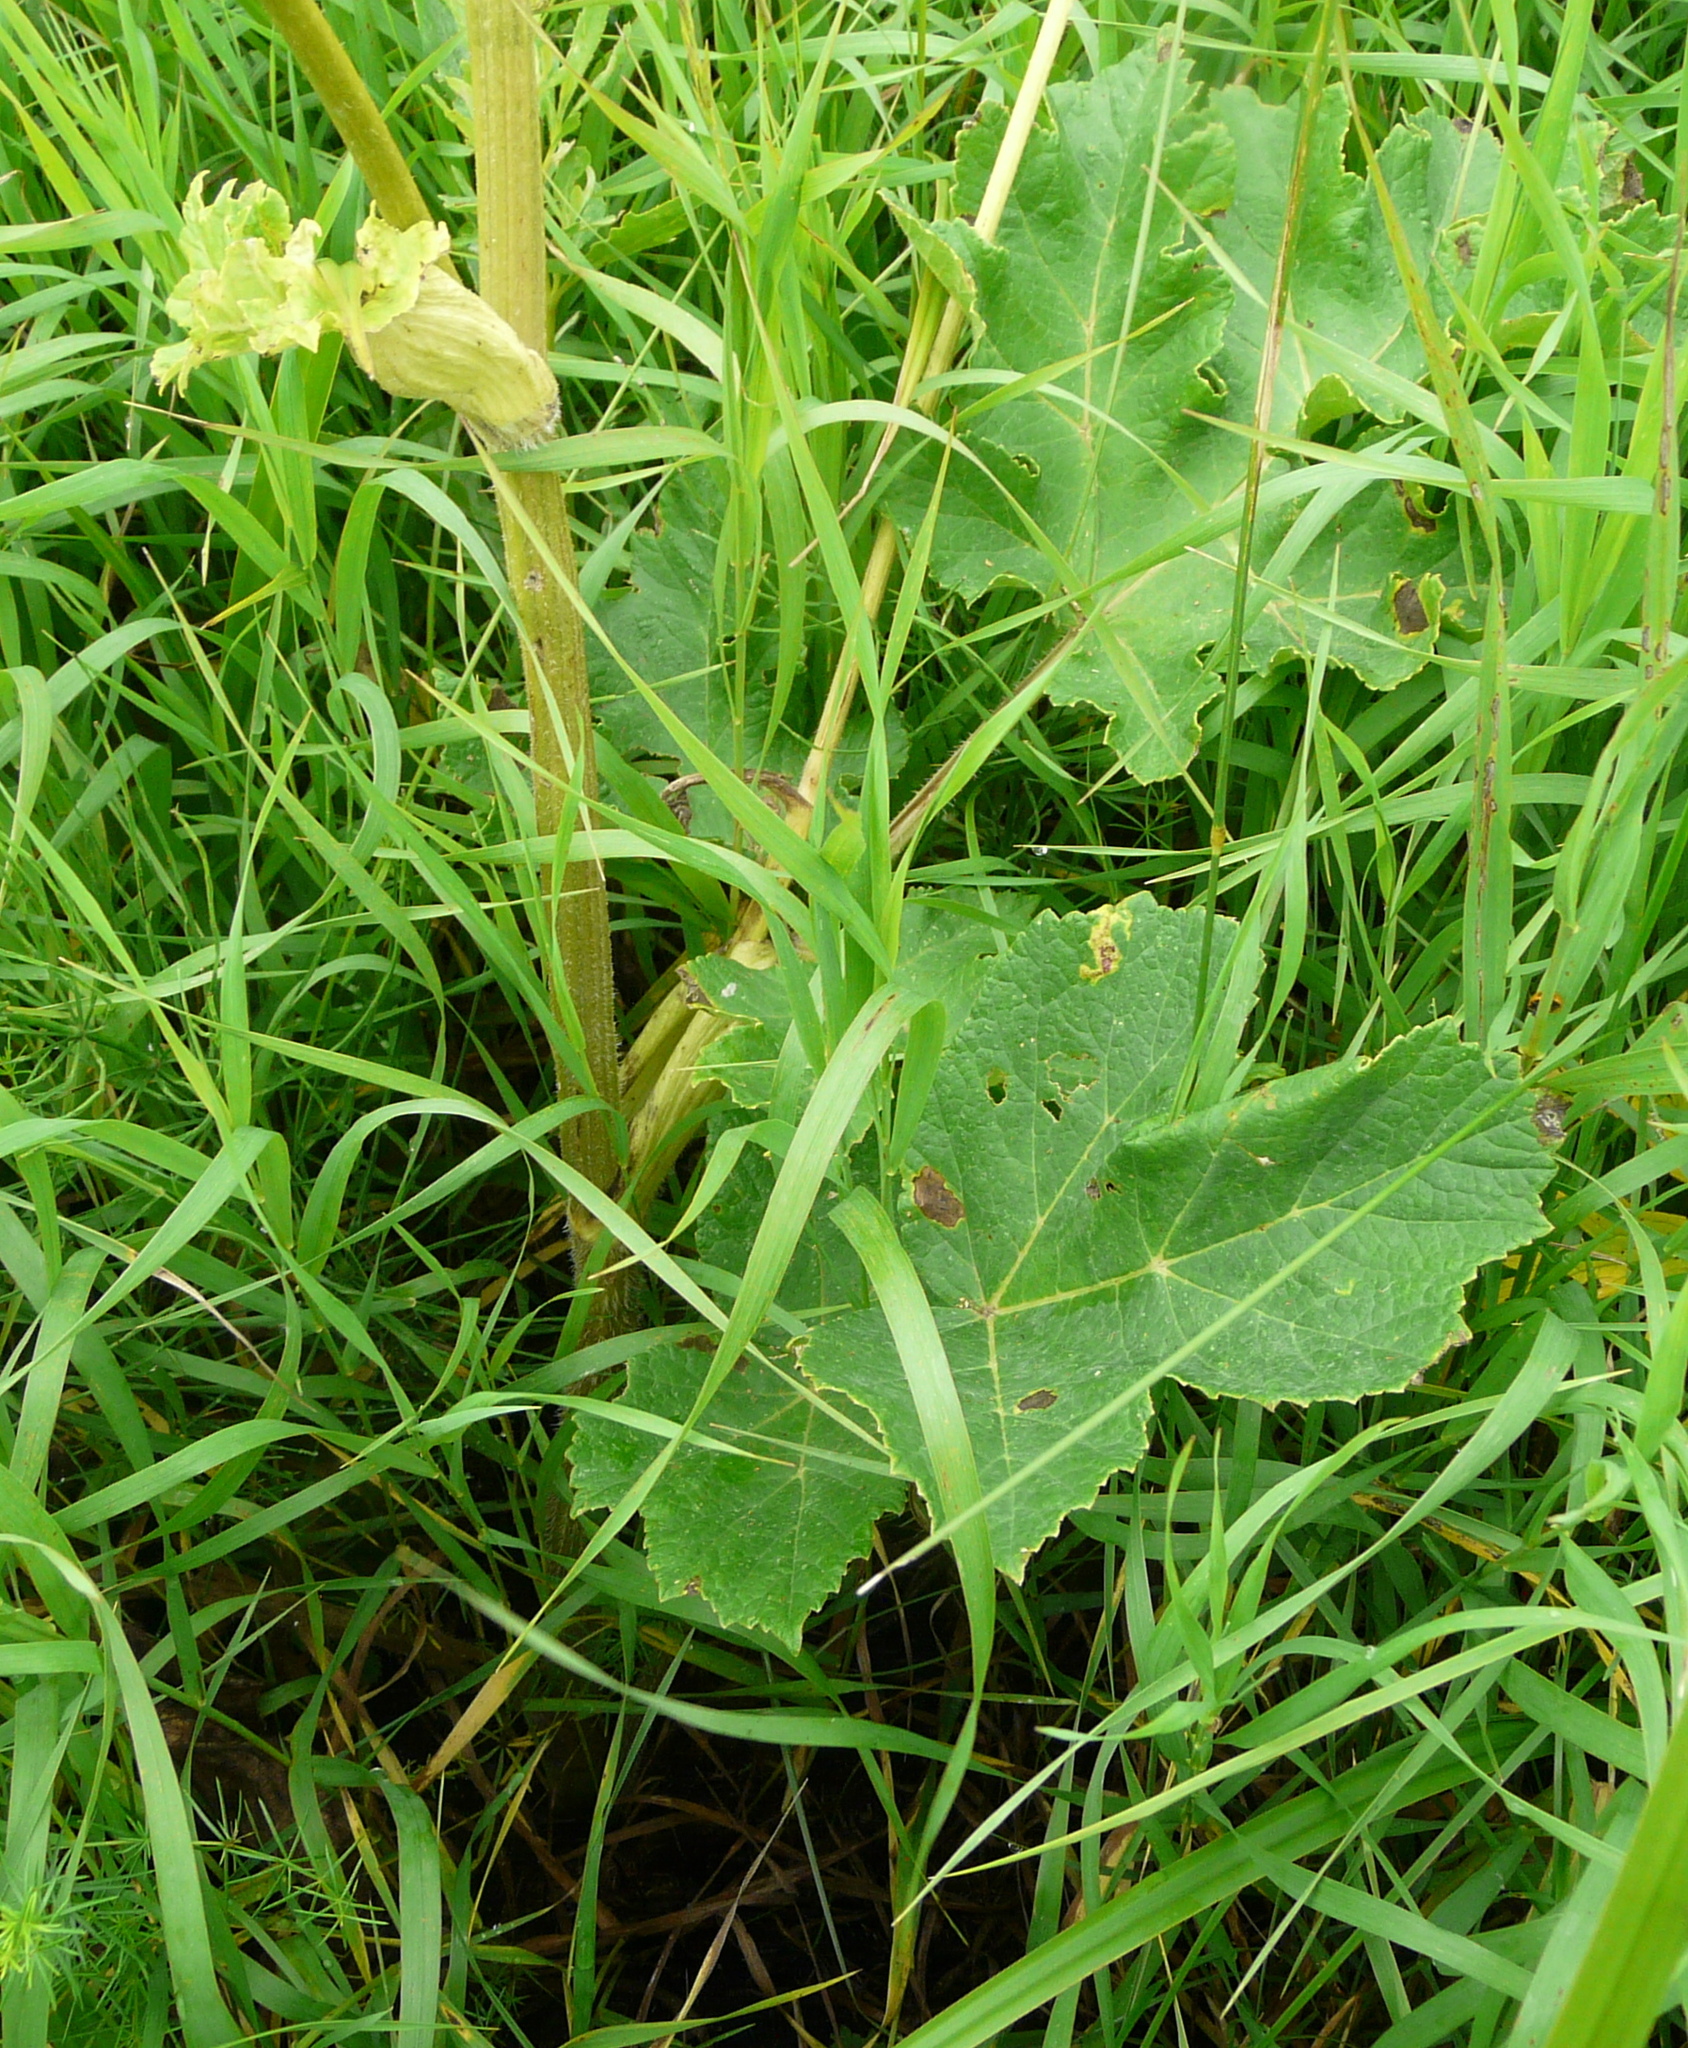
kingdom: Plantae
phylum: Tracheophyta
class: Magnoliopsida
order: Apiales
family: Apiaceae
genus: Heracleum
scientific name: Heracleum sphondylium
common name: Hogweed
